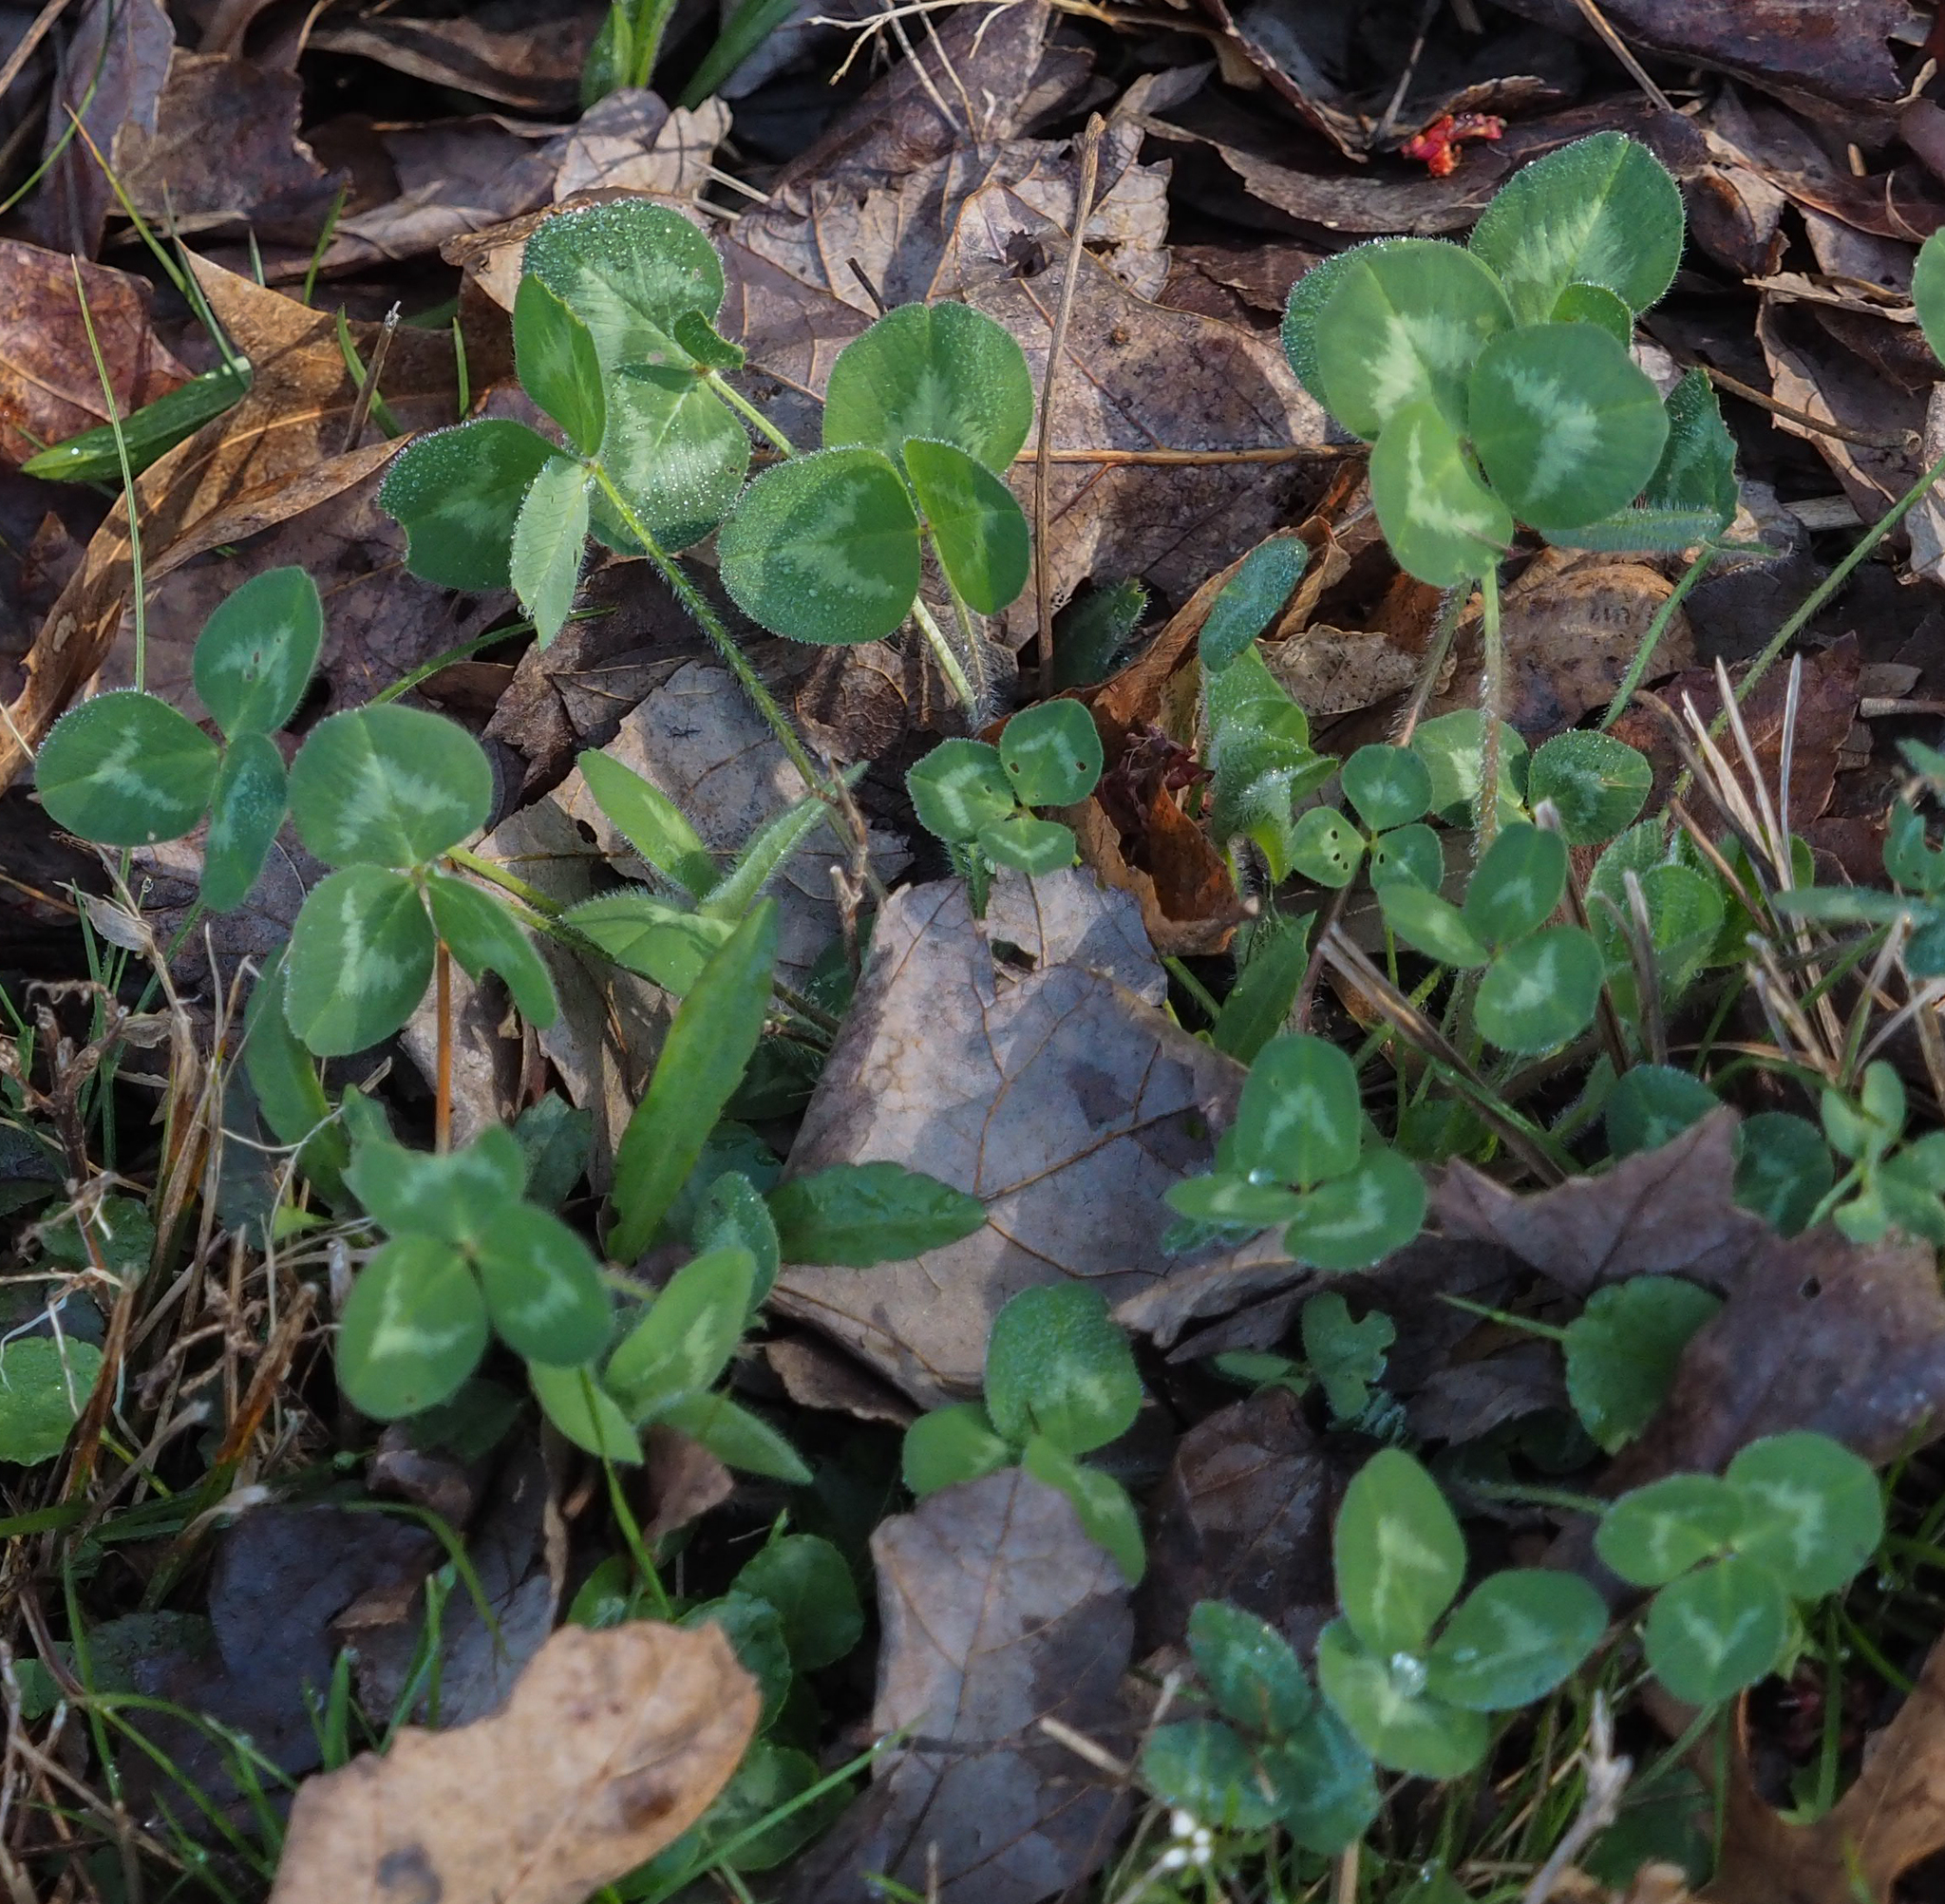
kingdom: Plantae
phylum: Tracheophyta
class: Magnoliopsida
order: Fabales
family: Fabaceae
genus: Trifolium
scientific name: Trifolium pratense
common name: Red clover
